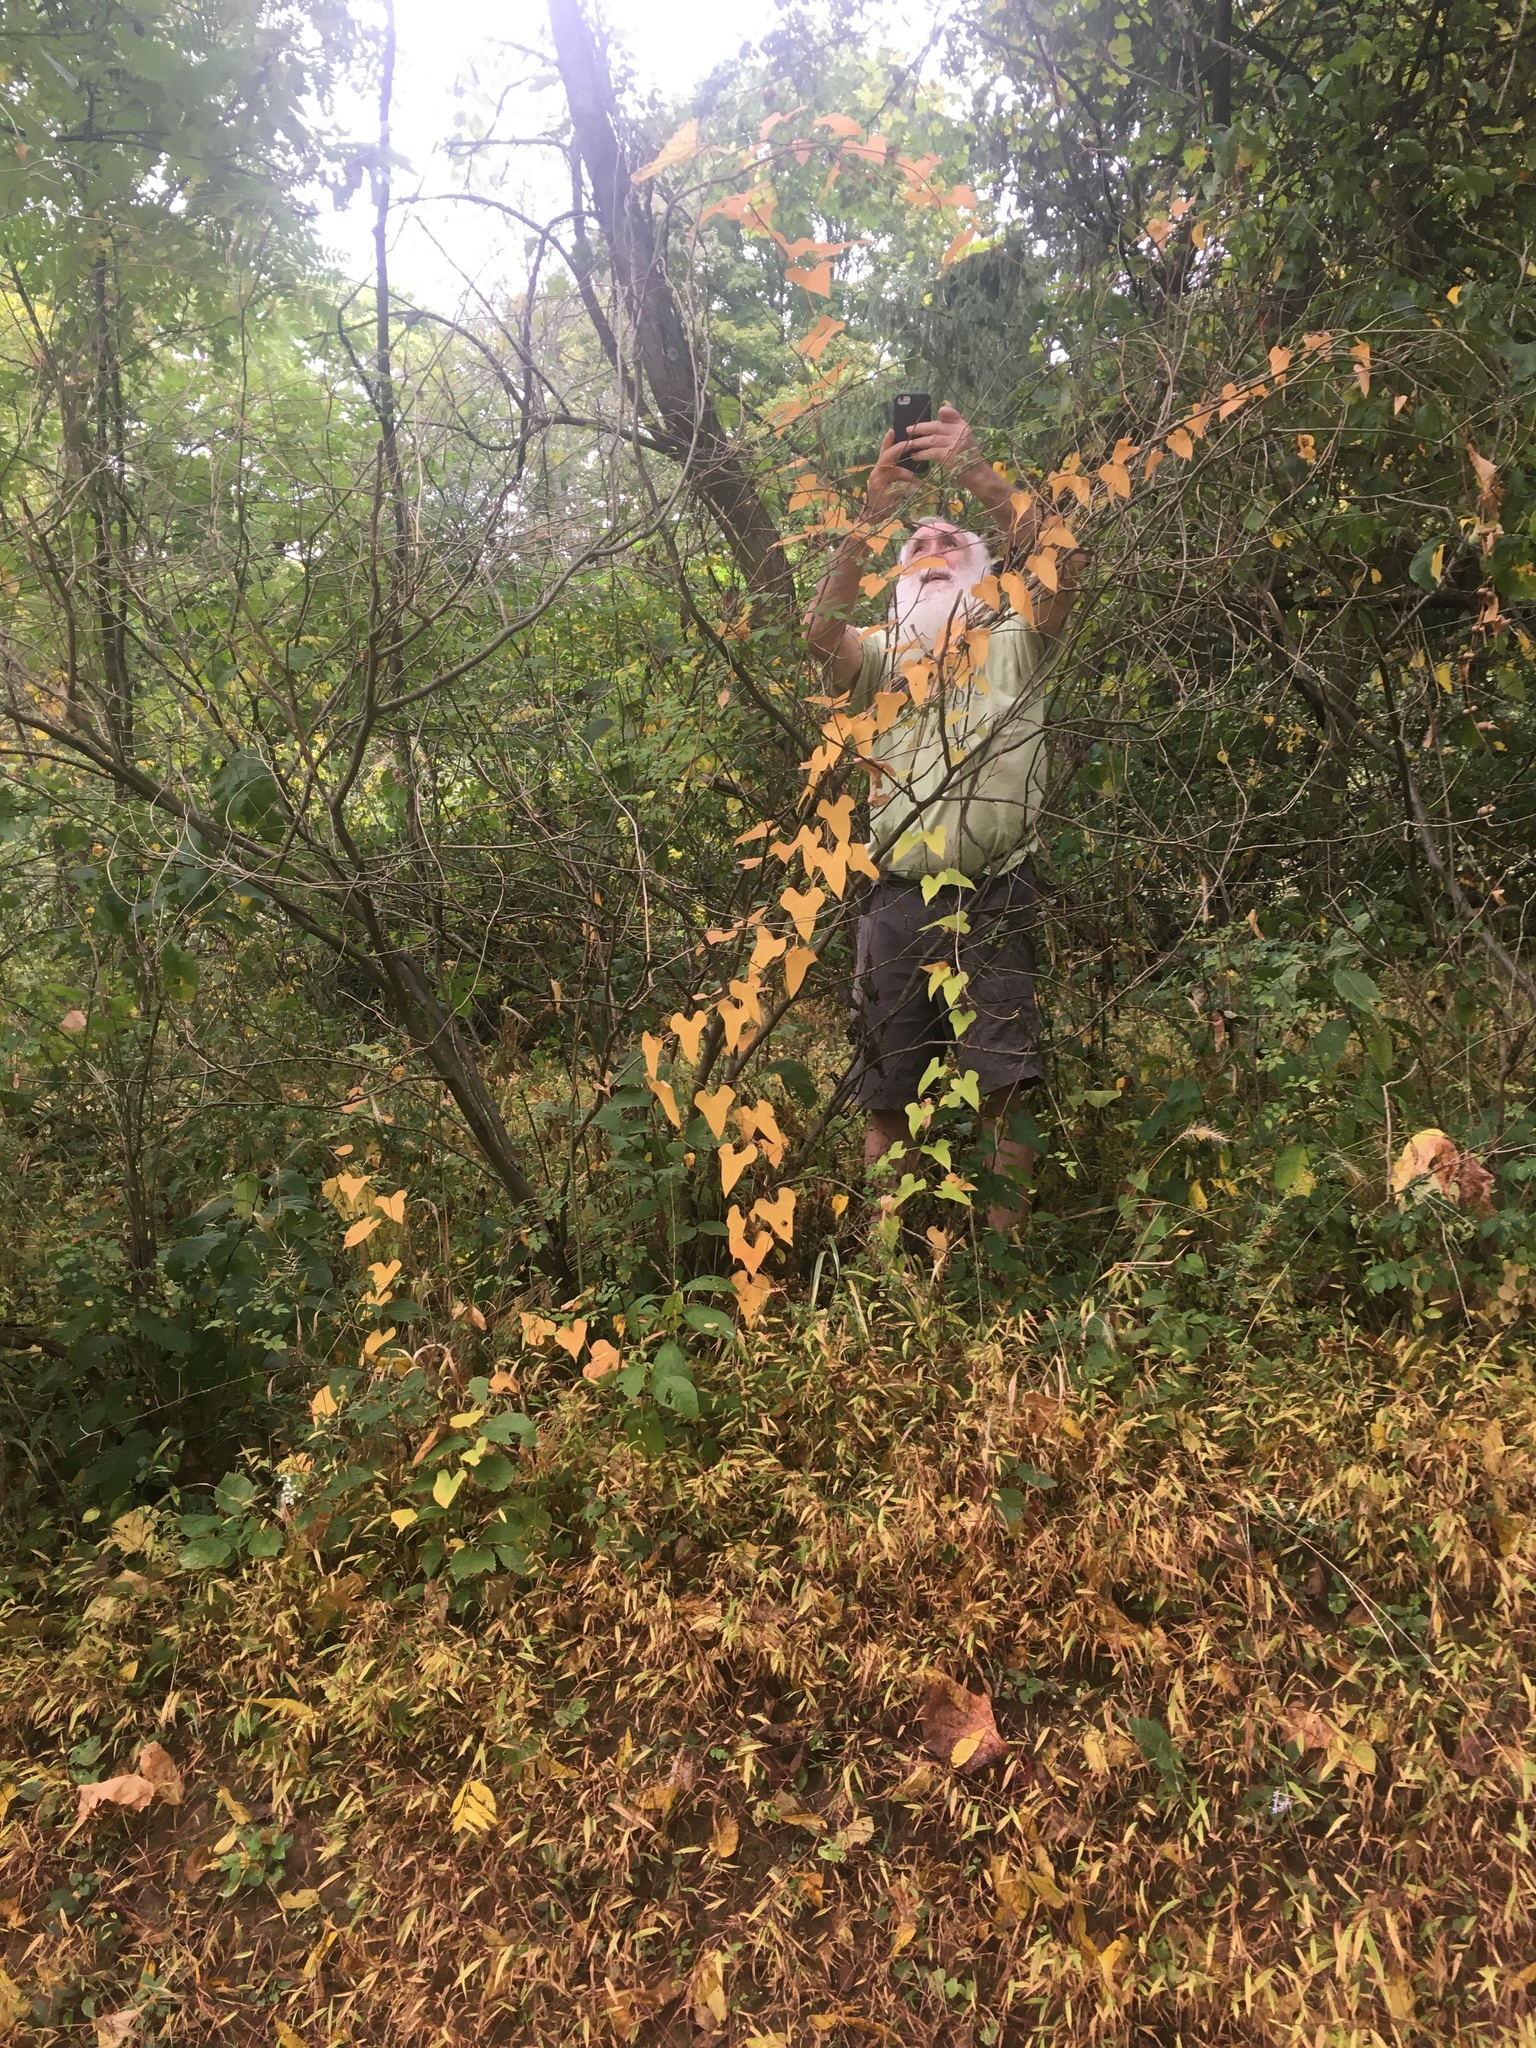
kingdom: Plantae
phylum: Tracheophyta
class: Liliopsida
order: Dioscoreales
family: Dioscoreaceae
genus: Dioscorea
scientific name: Dioscorea polystachya
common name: Chinese yam
